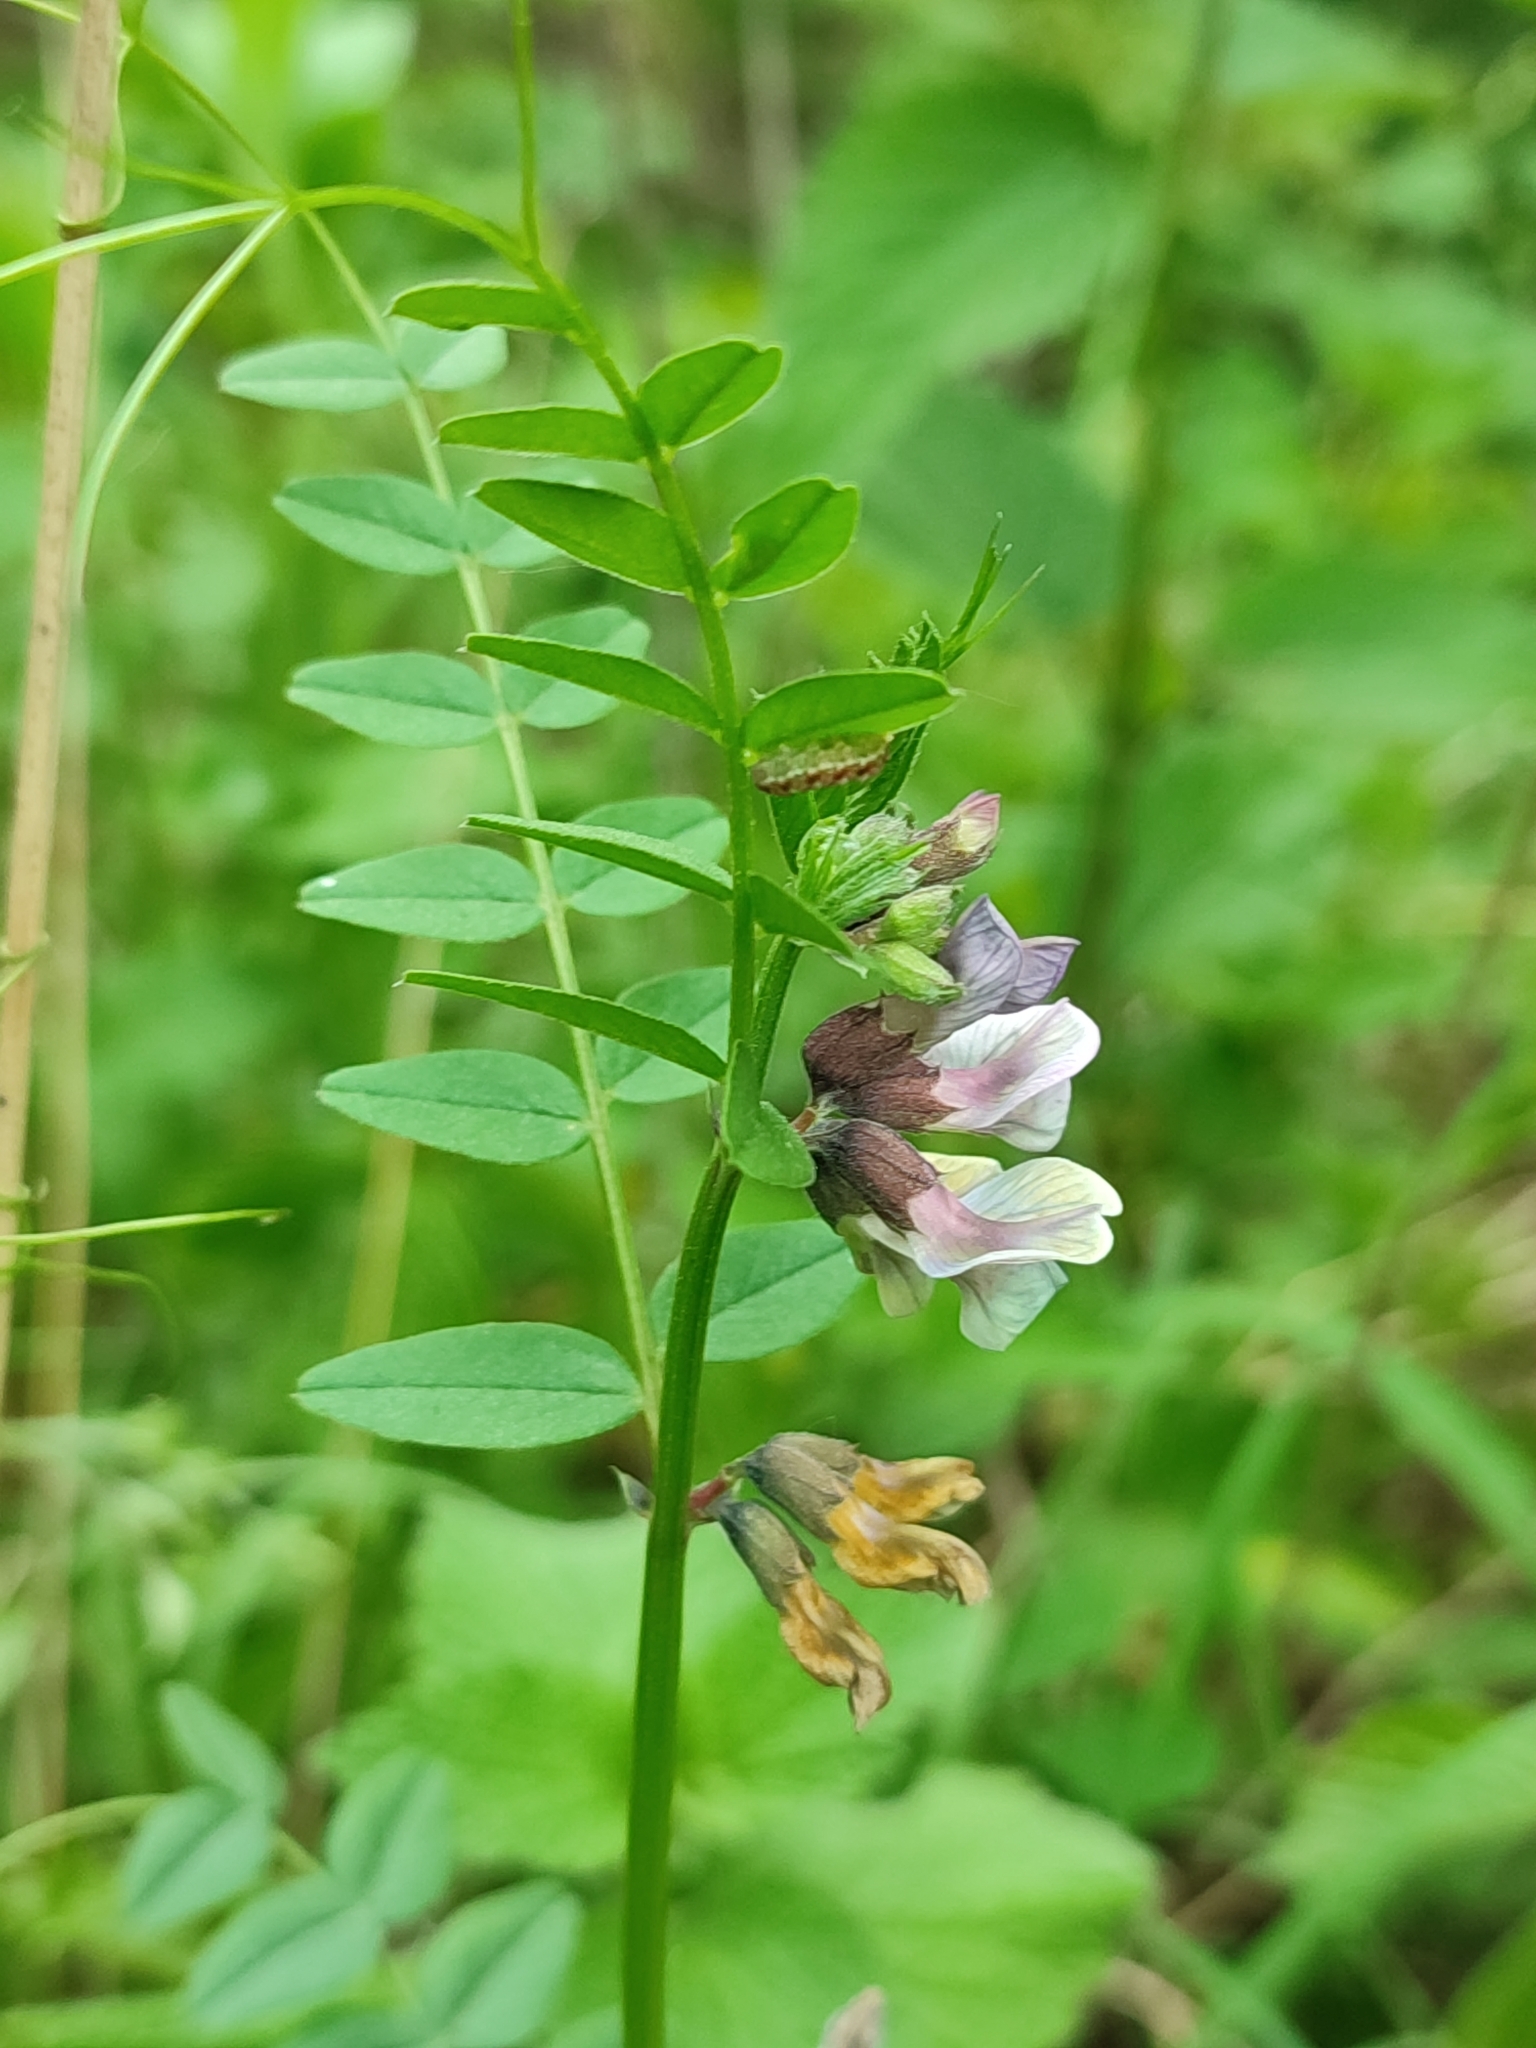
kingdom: Plantae
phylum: Tracheophyta
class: Magnoliopsida
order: Fabales
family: Fabaceae
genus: Vicia
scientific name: Vicia sepium
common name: Bush vetch
